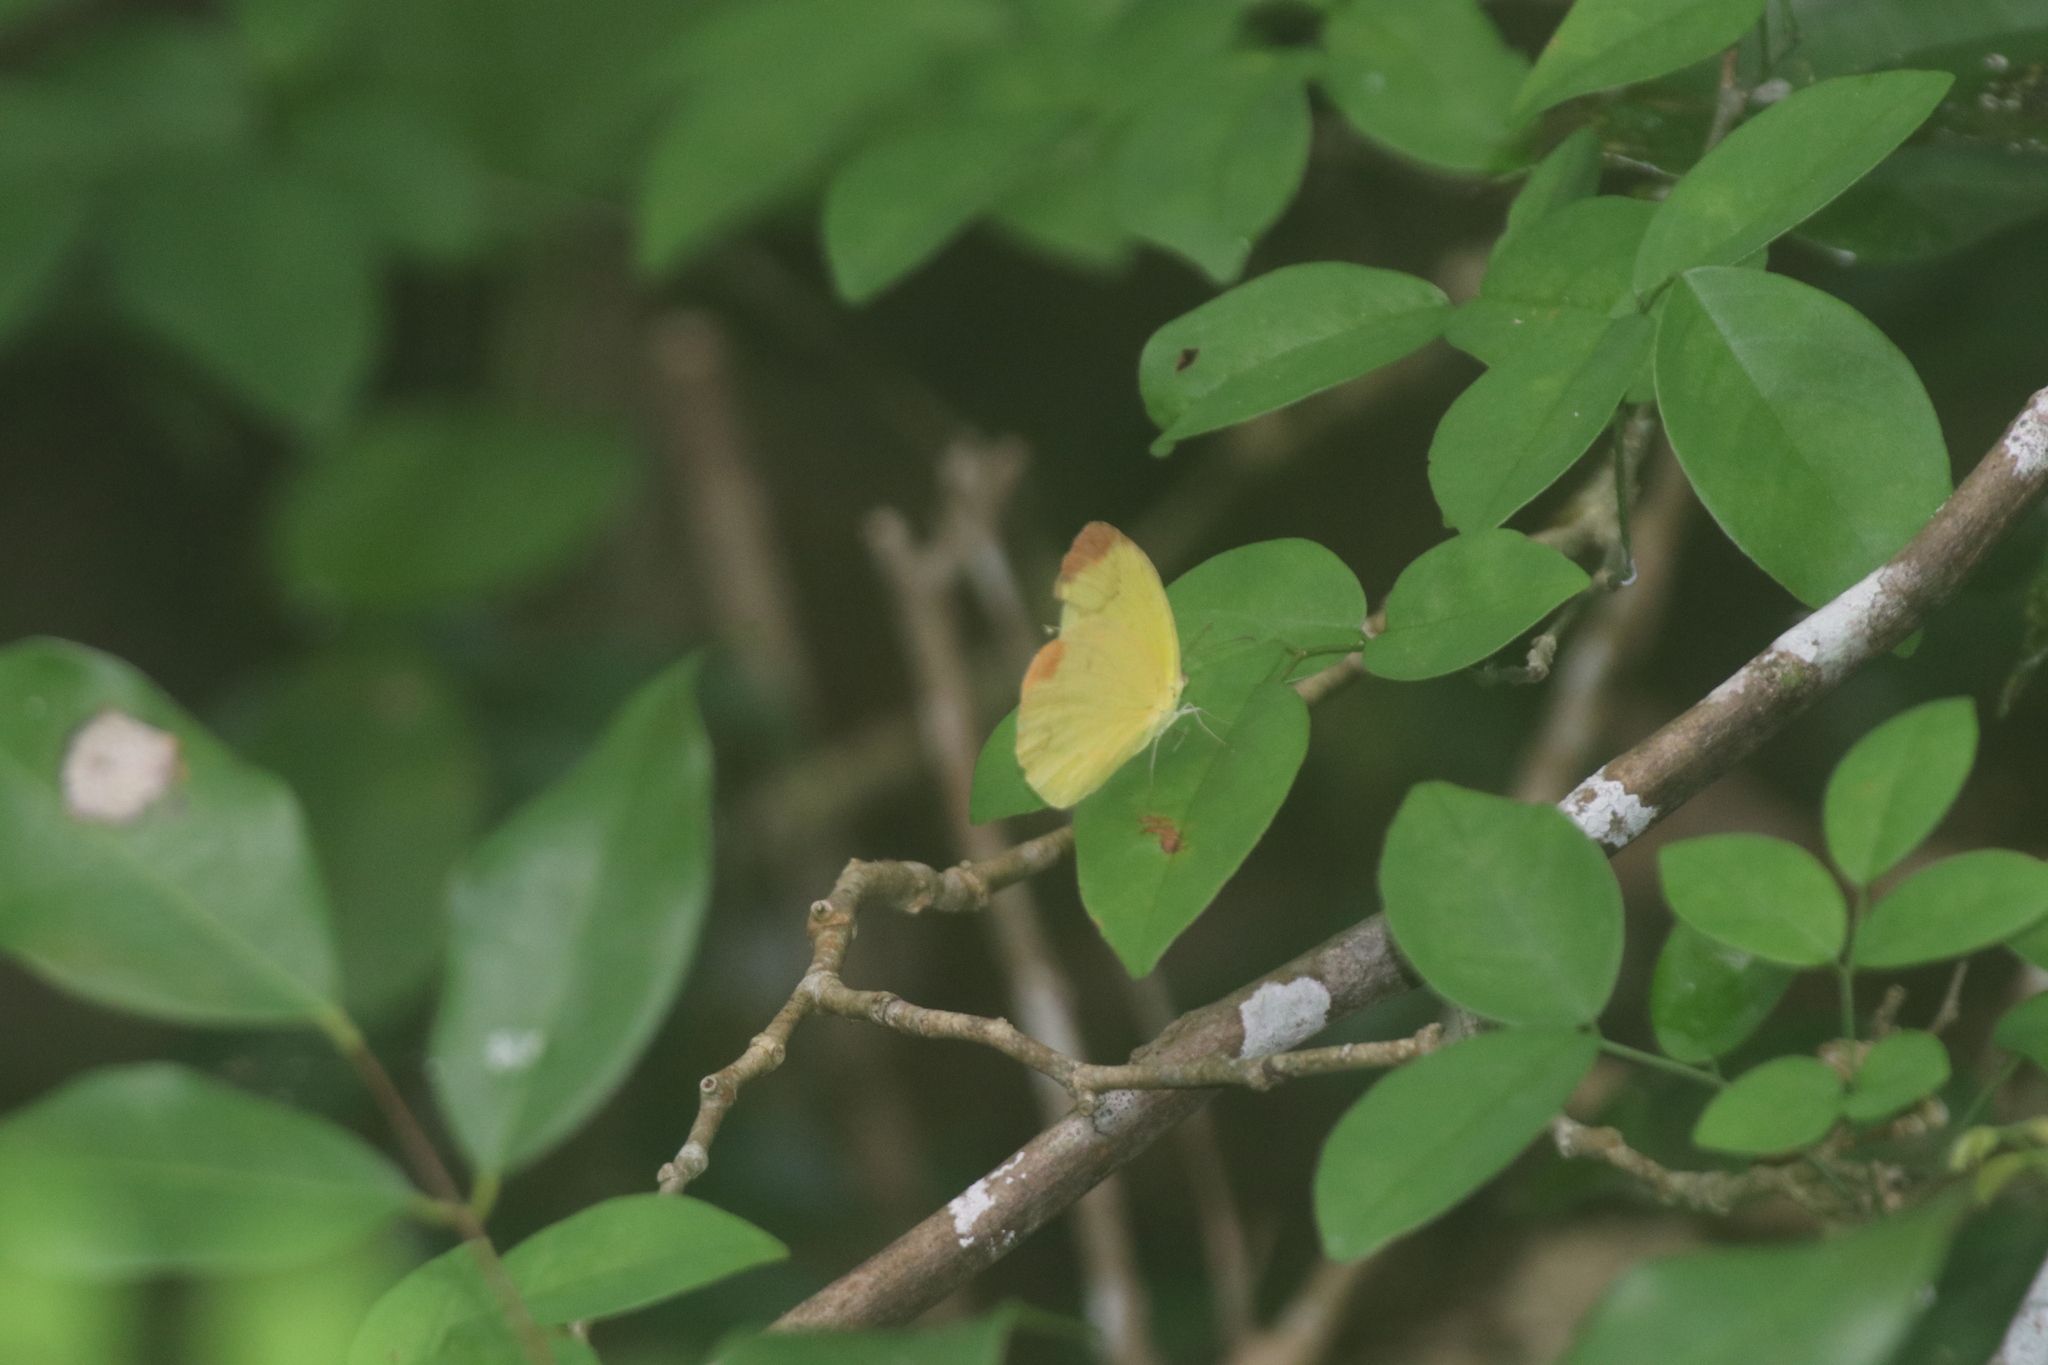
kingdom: Animalia
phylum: Arthropoda
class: Insecta
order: Lepidoptera
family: Pieridae
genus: Pyrisitia
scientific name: Pyrisitia westwoodi
